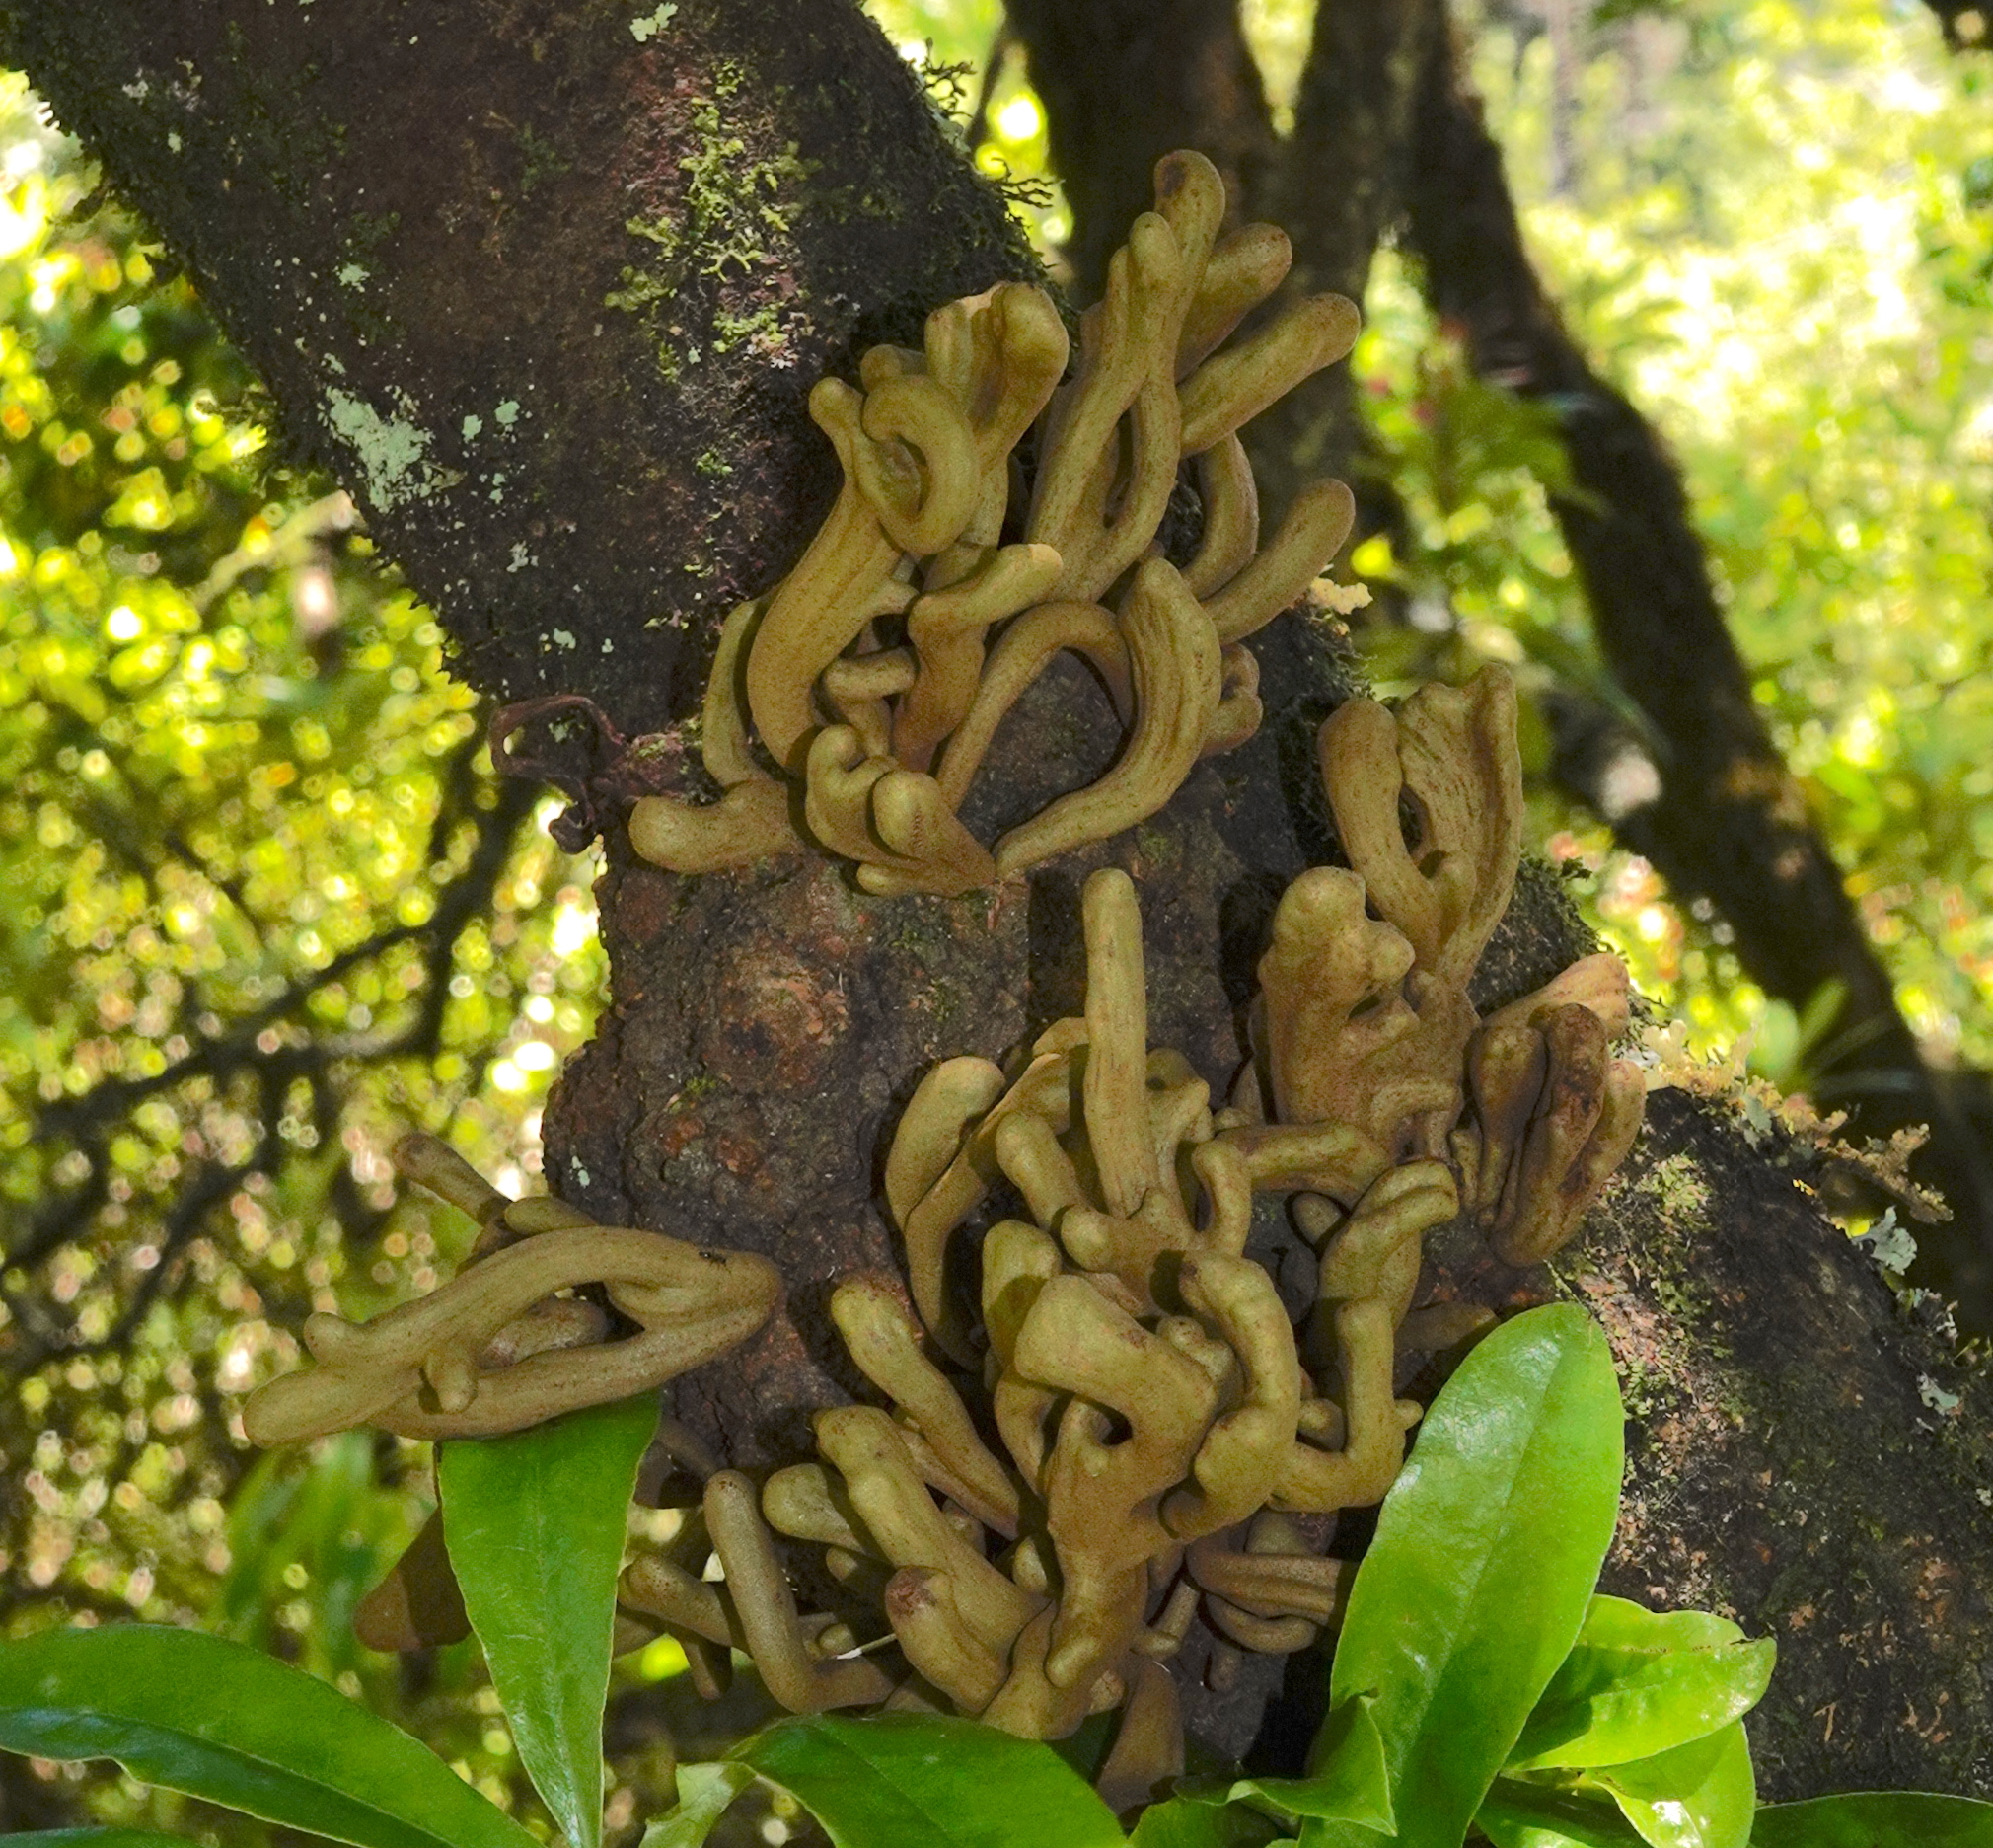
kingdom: Fungi
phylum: Basidiomycota
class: Exobasidiomycetes
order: Exobasidiales
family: Laurobasidiaceae
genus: Laurobasidium
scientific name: Laurobasidium lauri
